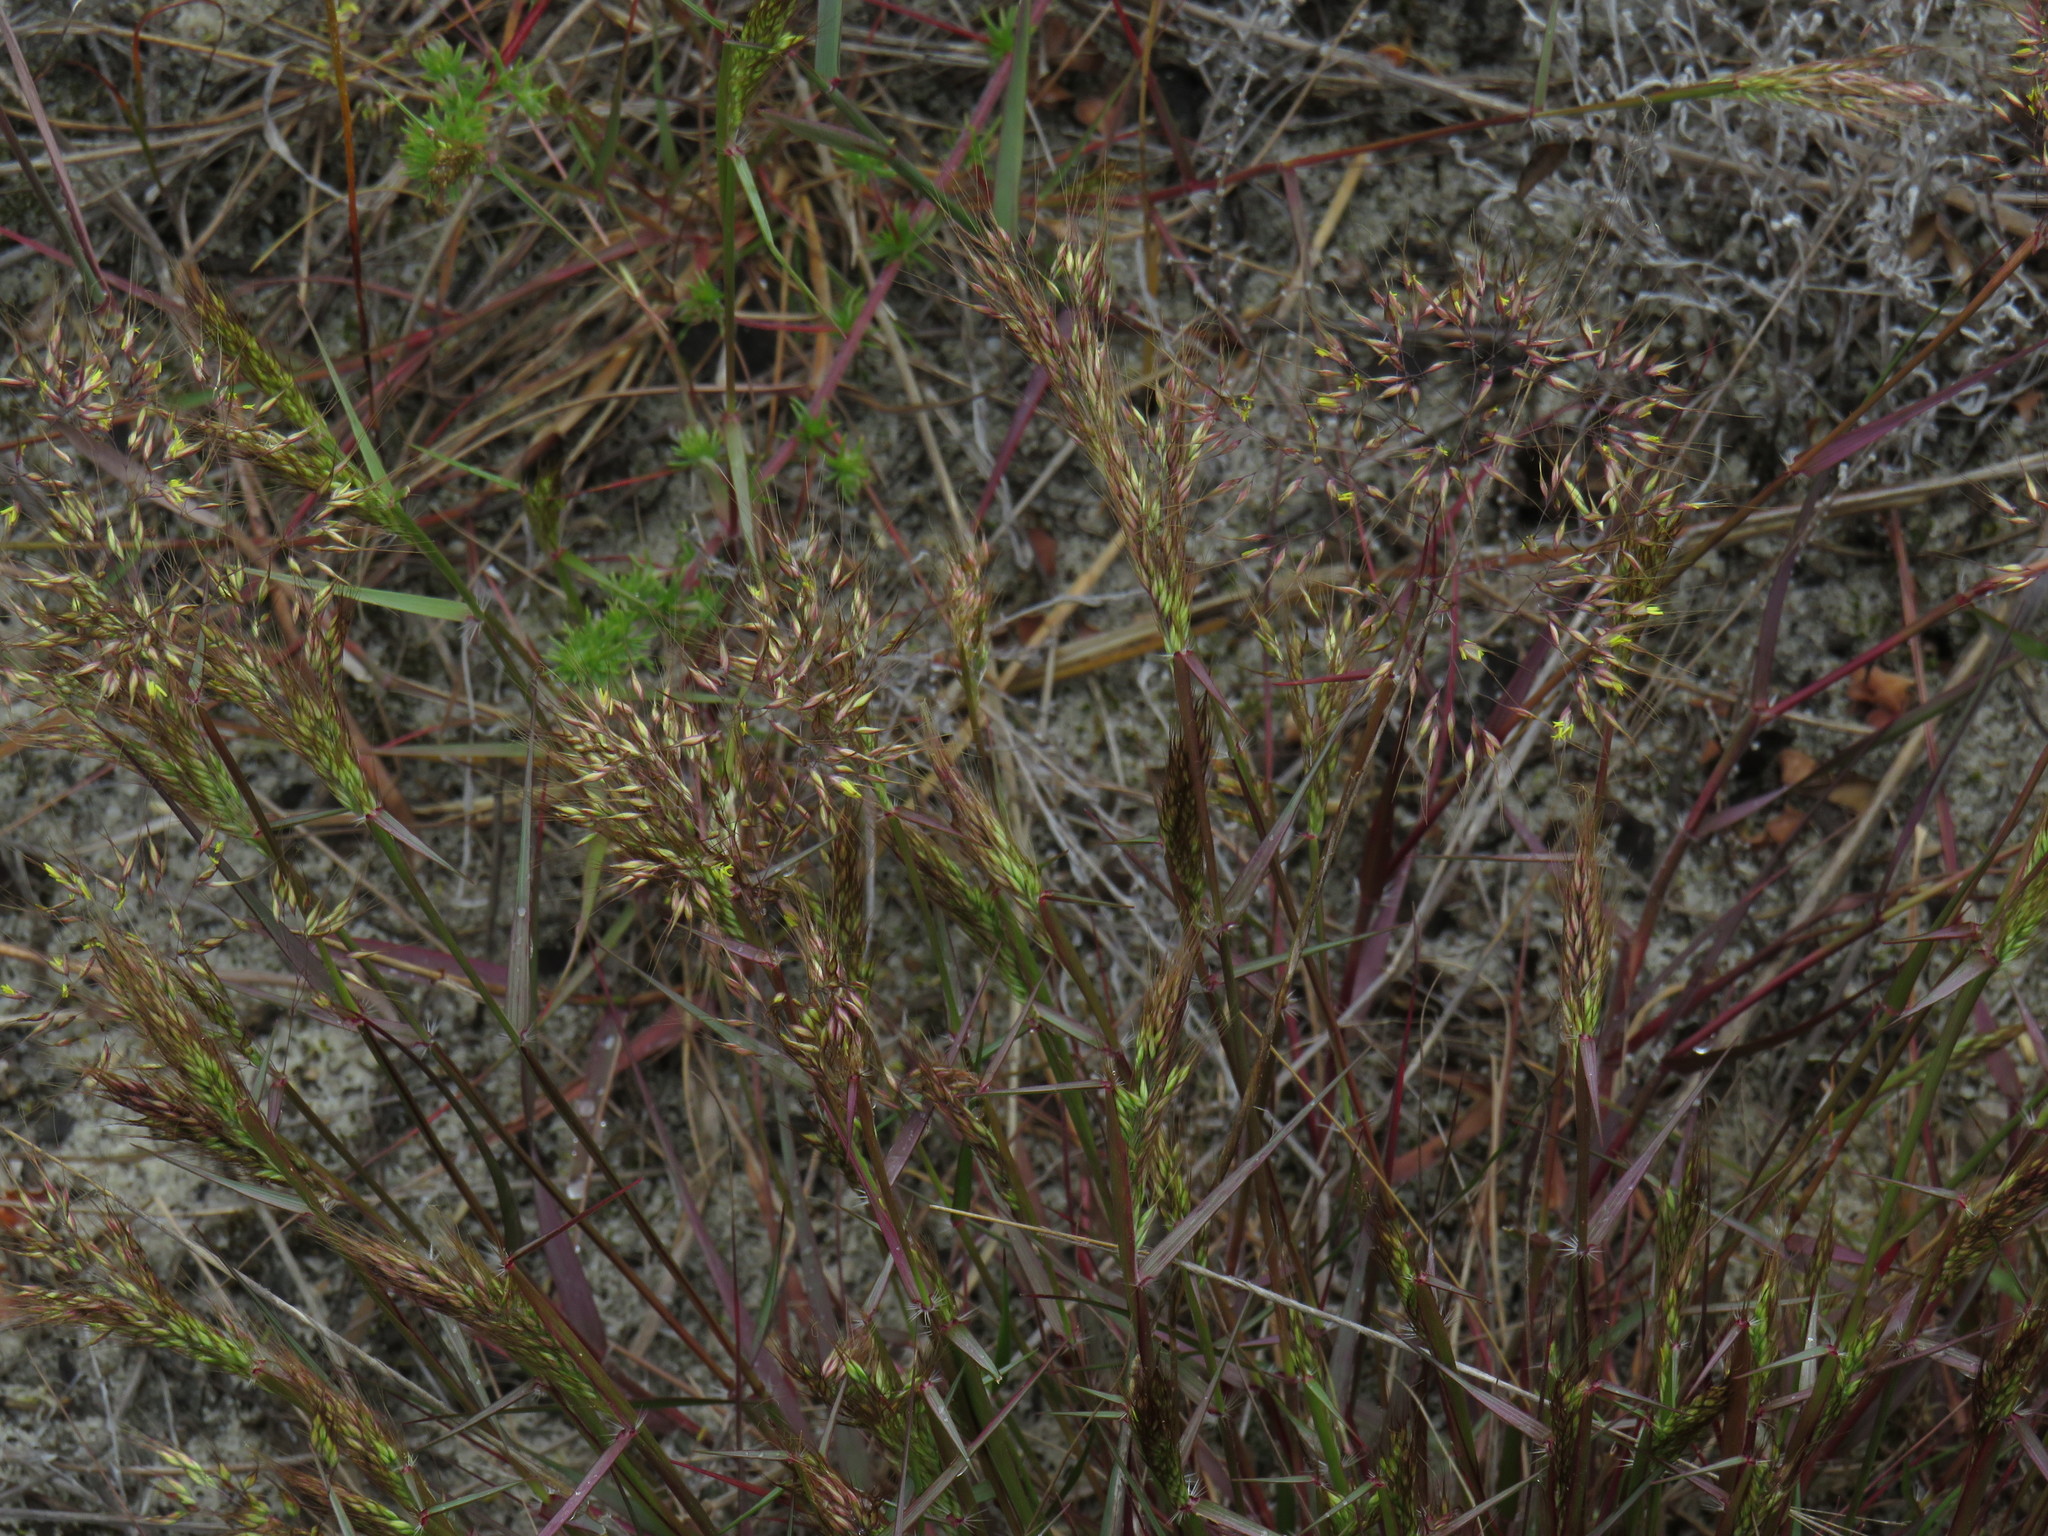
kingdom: Plantae
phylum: Tracheophyta
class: Liliopsida
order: Poales
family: Poaceae
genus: Pentameris
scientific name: Pentameris pallida
